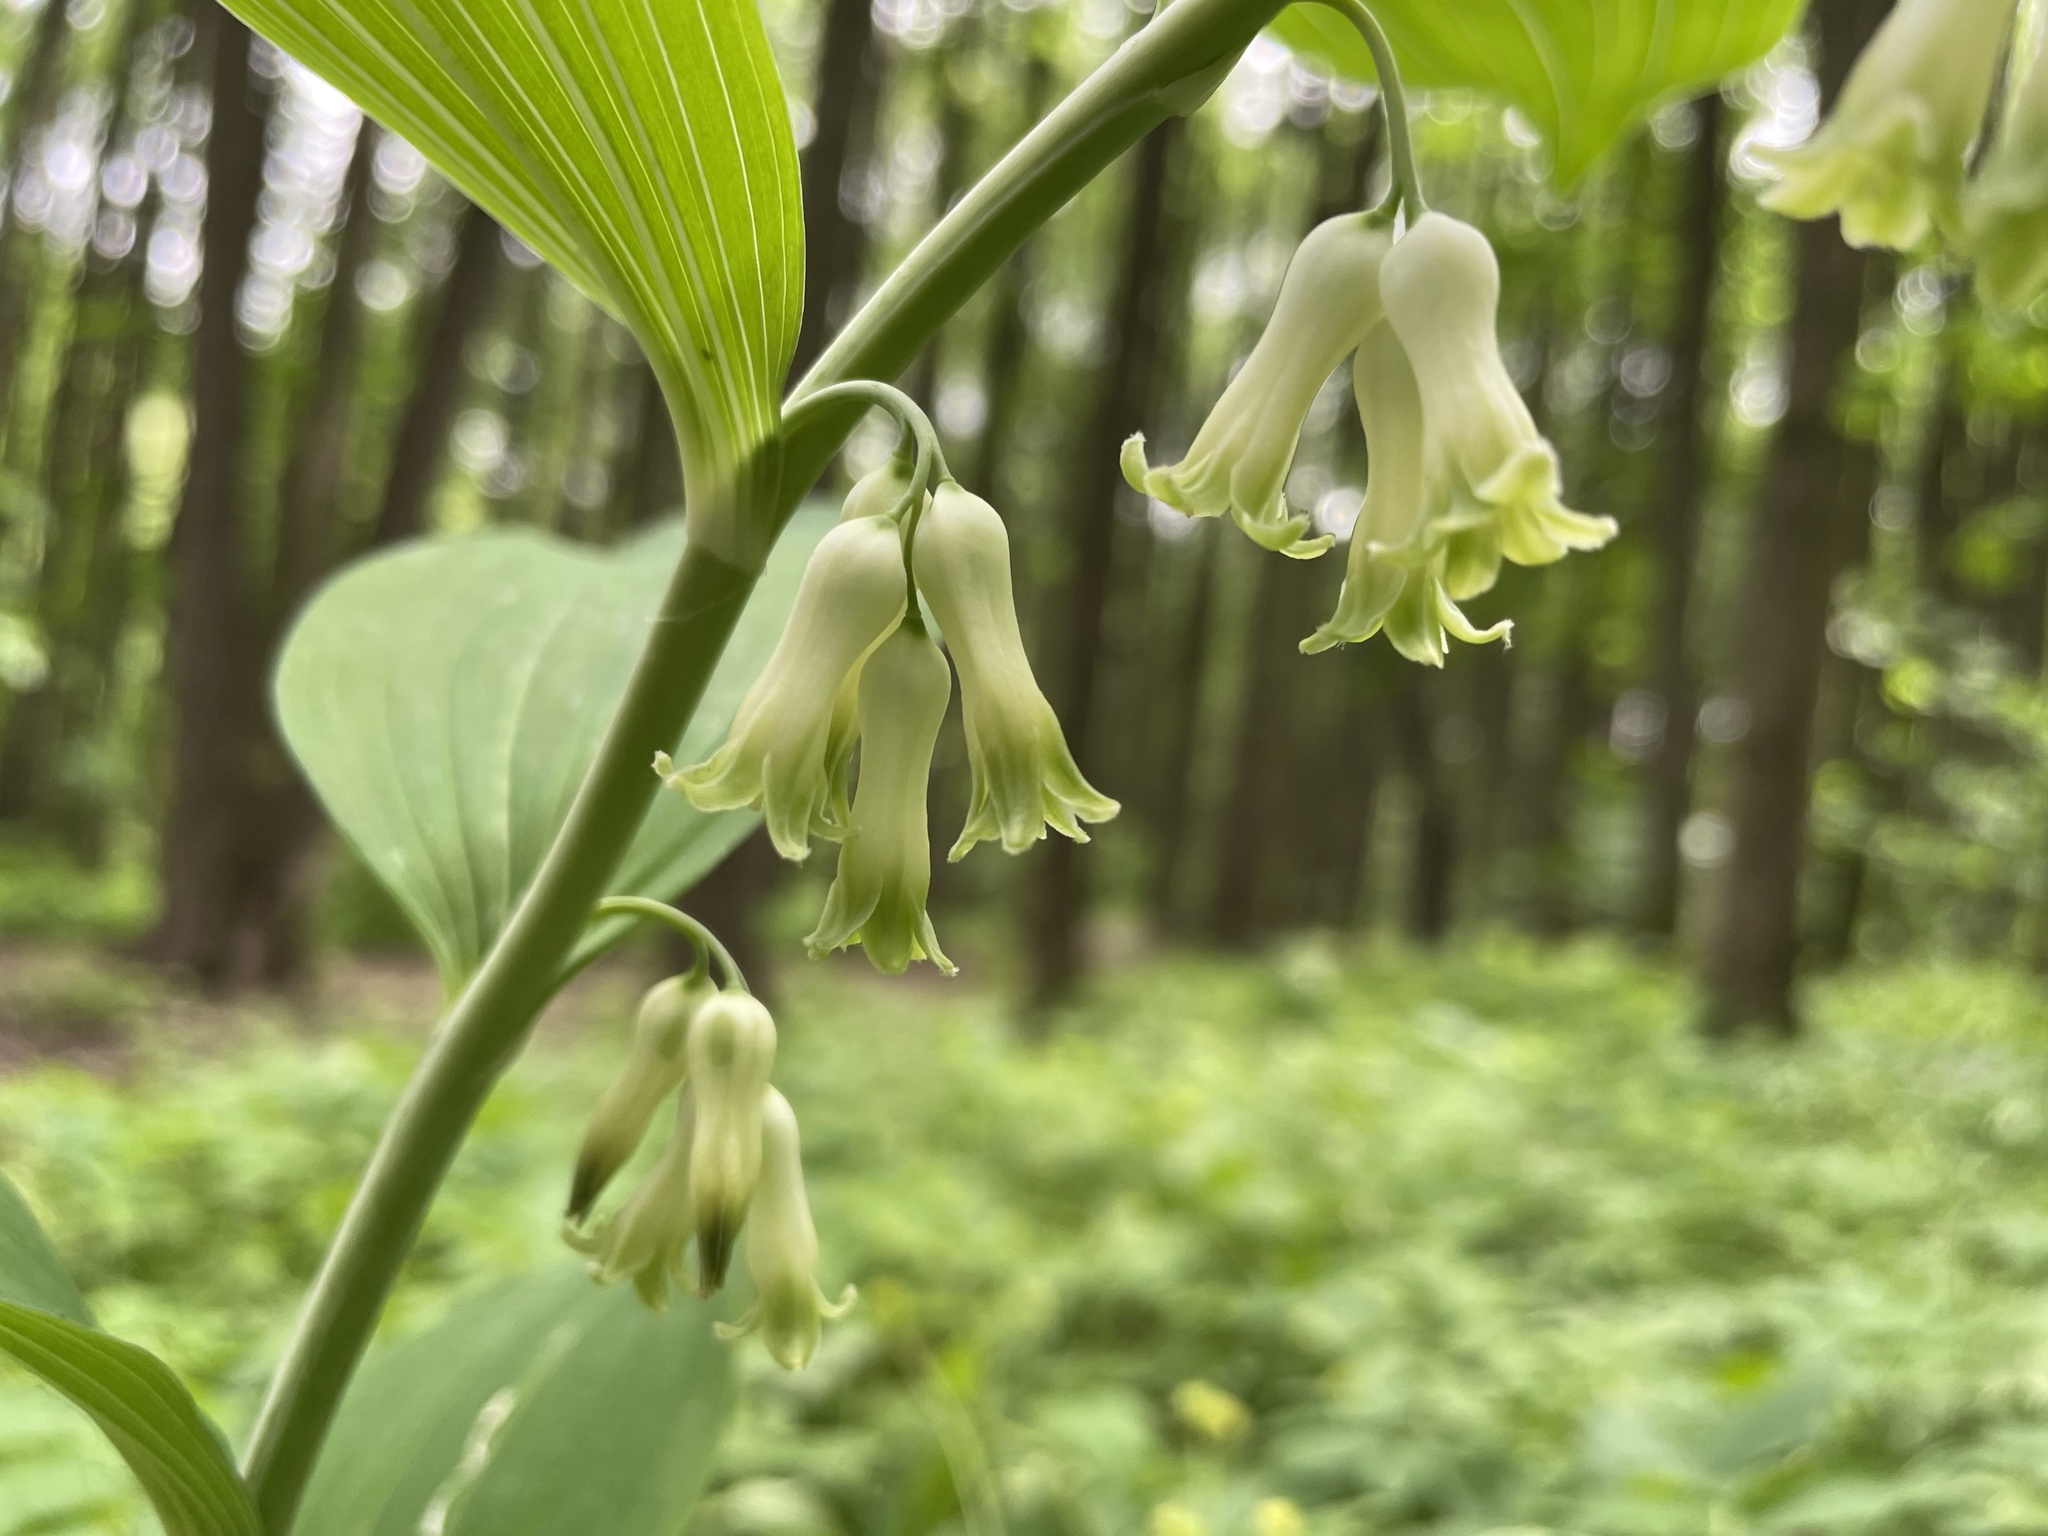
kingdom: Plantae
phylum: Tracheophyta
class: Liliopsida
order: Asparagales
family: Asparagaceae
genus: Polygonatum
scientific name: Polygonatum multiflorum
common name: Solomon's-seal
